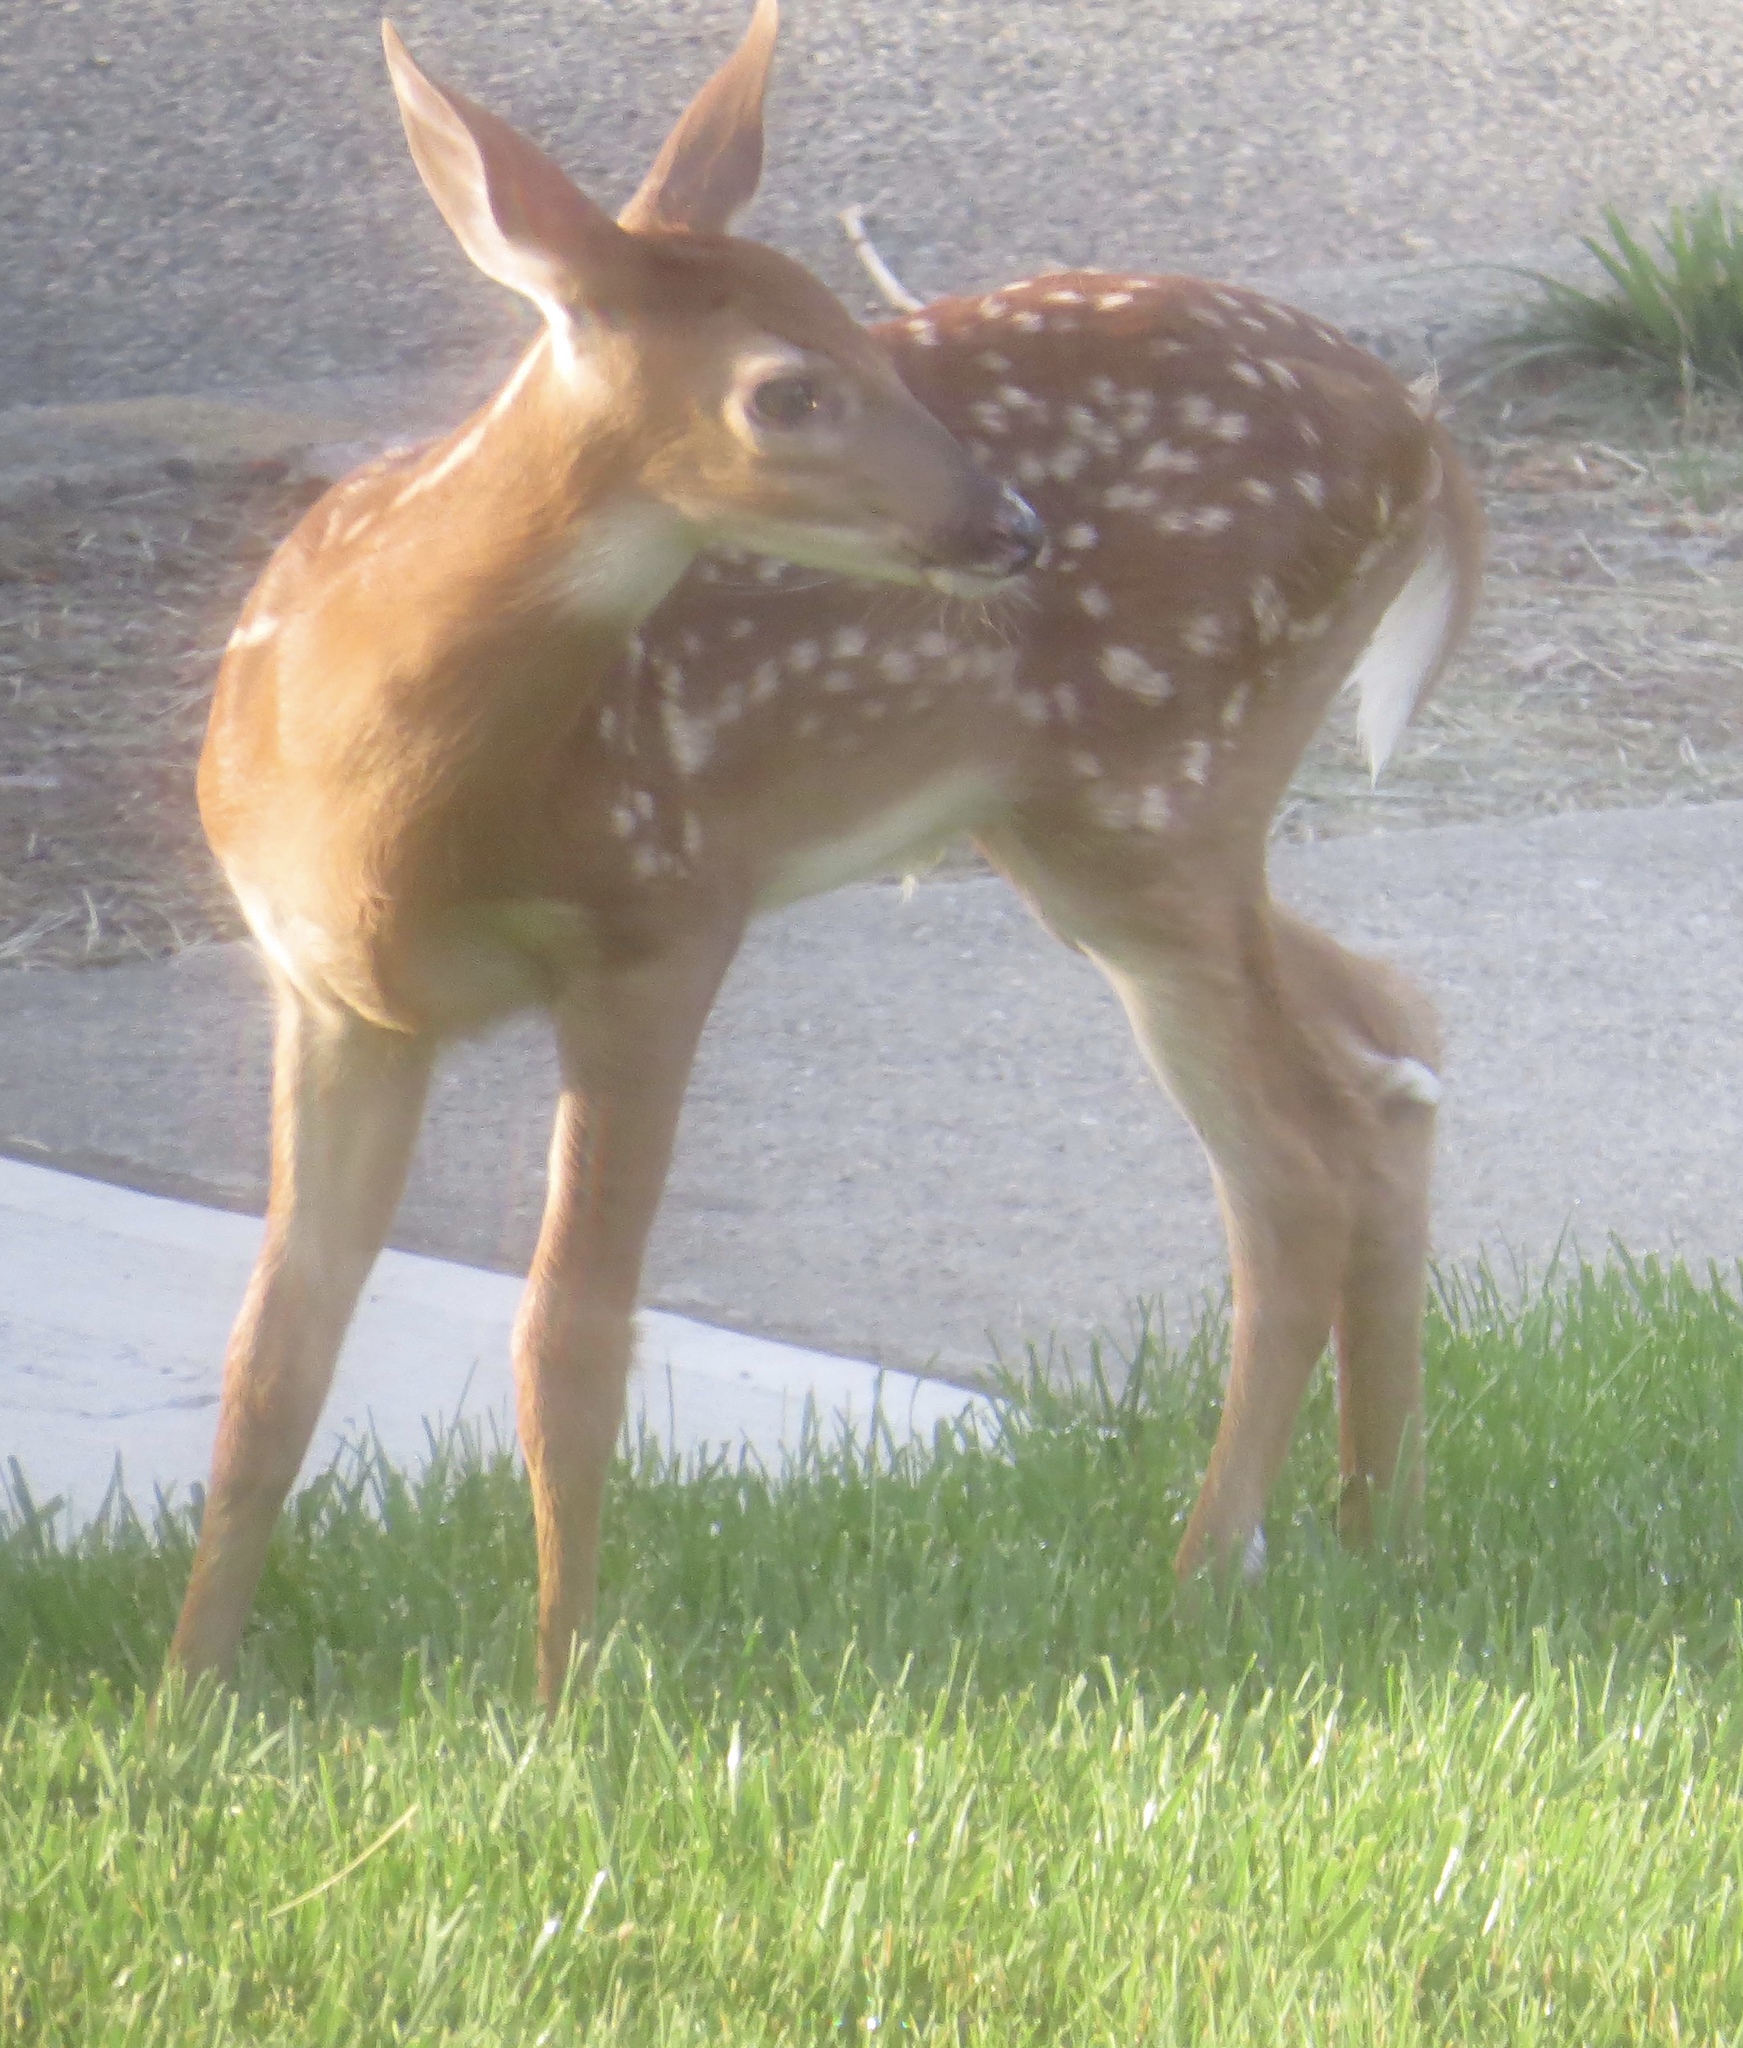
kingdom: Animalia
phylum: Chordata
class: Mammalia
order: Artiodactyla
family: Cervidae
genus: Odocoileus
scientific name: Odocoileus virginianus
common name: White-tailed deer
